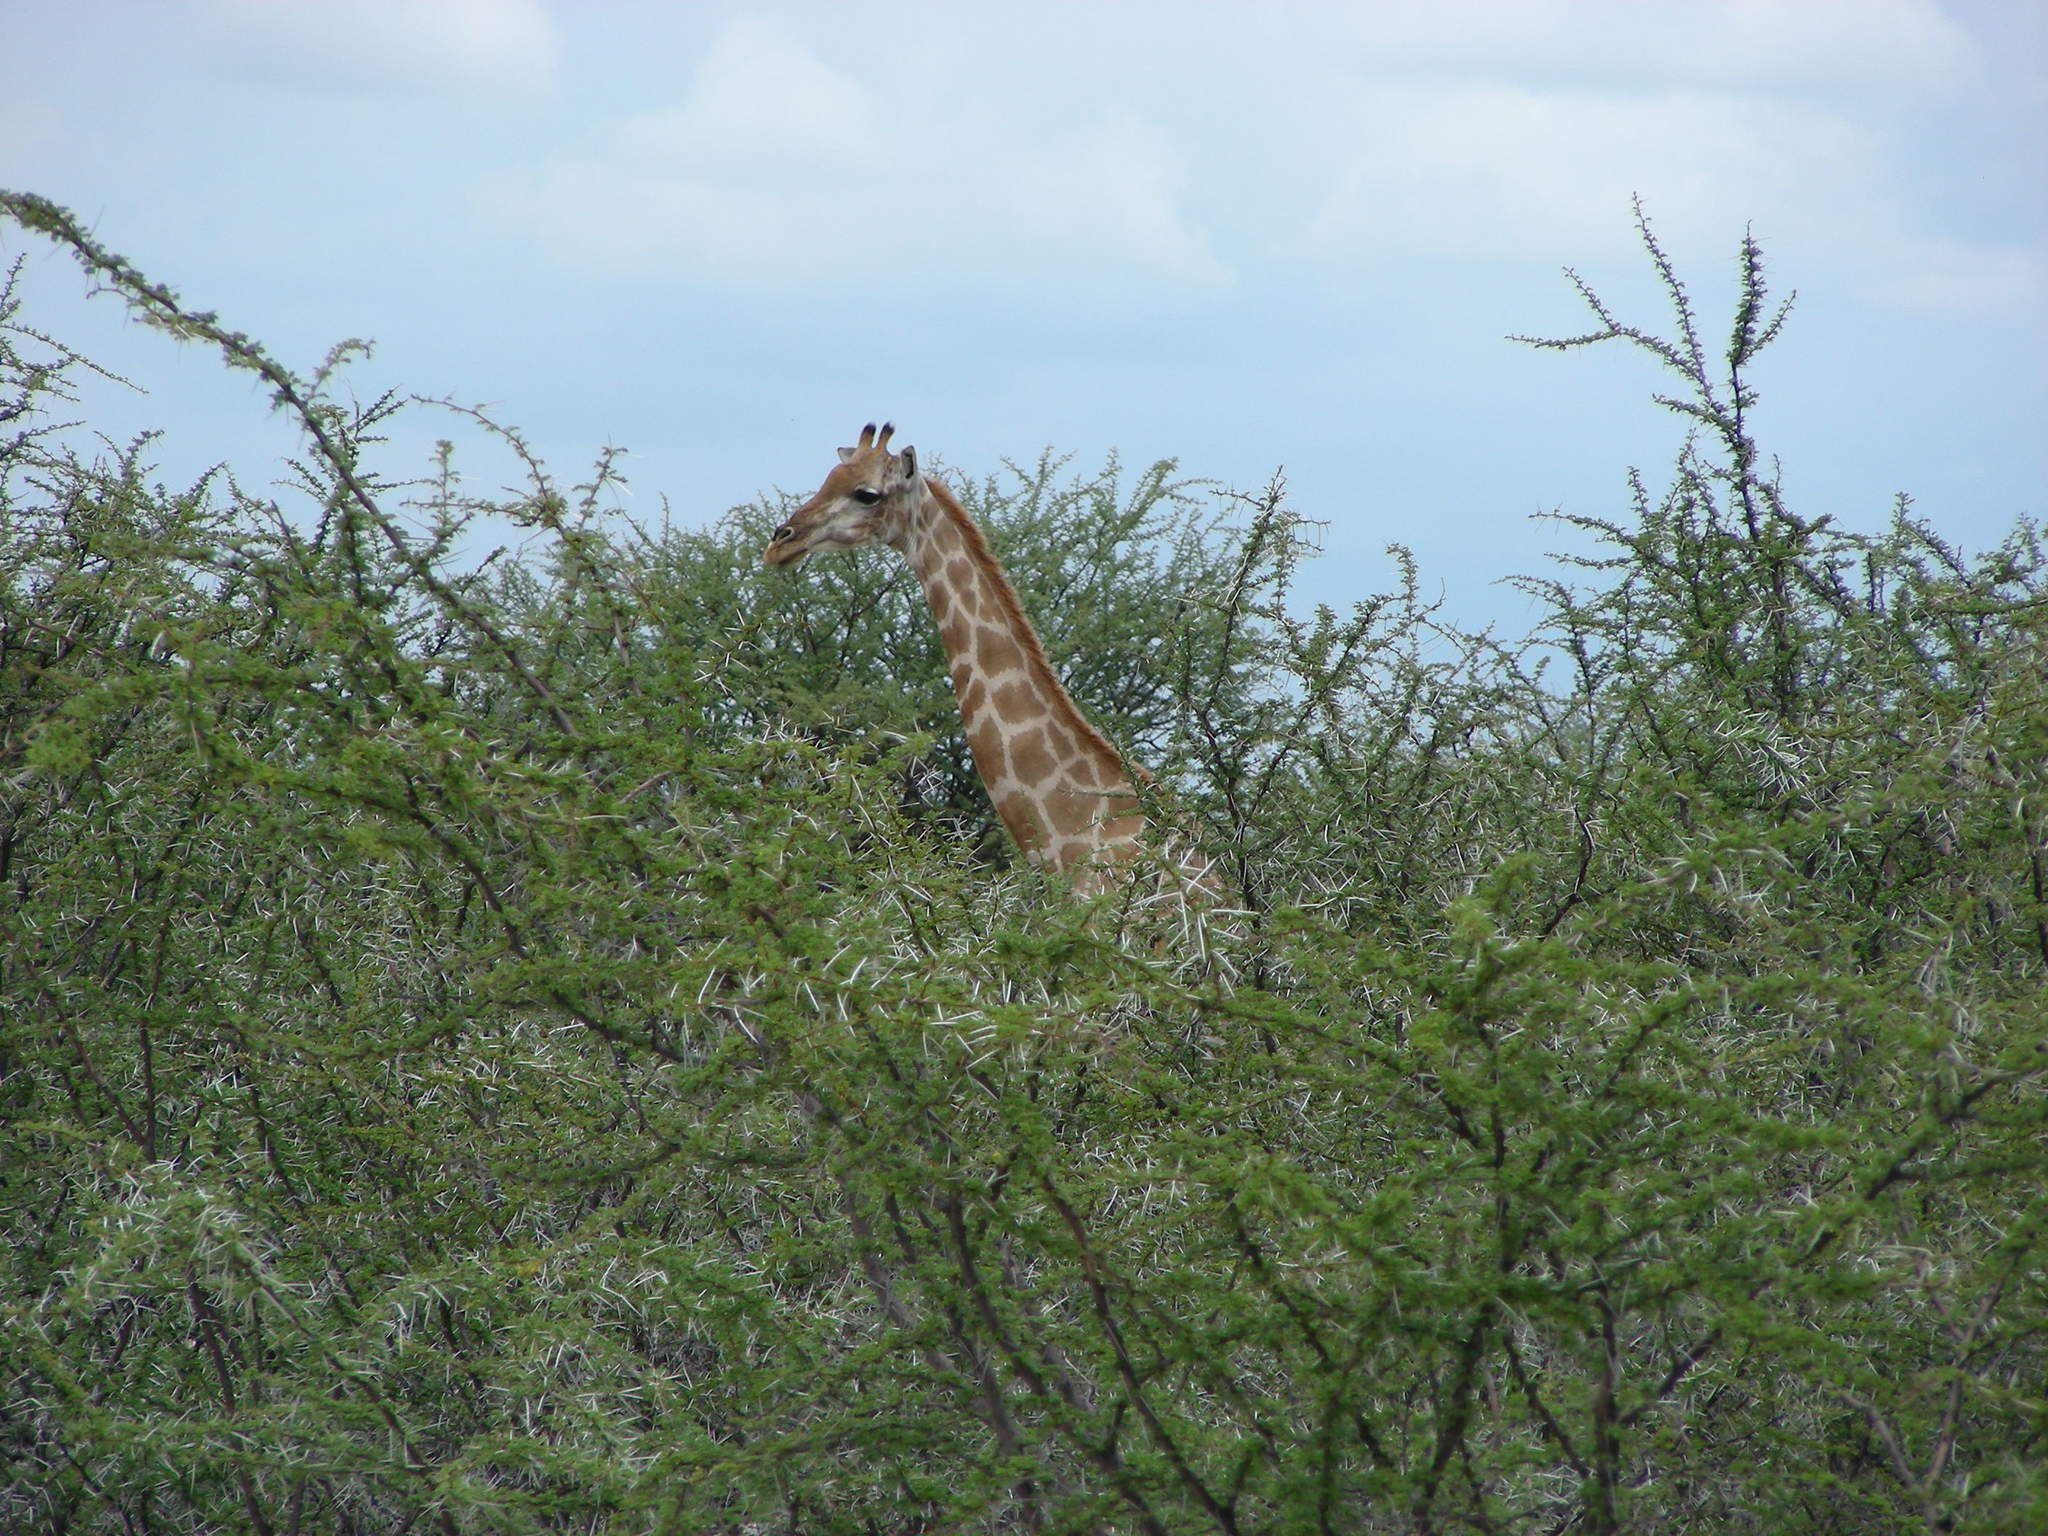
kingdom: Animalia
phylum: Chordata
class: Mammalia
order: Artiodactyla
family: Giraffidae
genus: Giraffa
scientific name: Giraffa giraffa
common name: Southern giraffe
